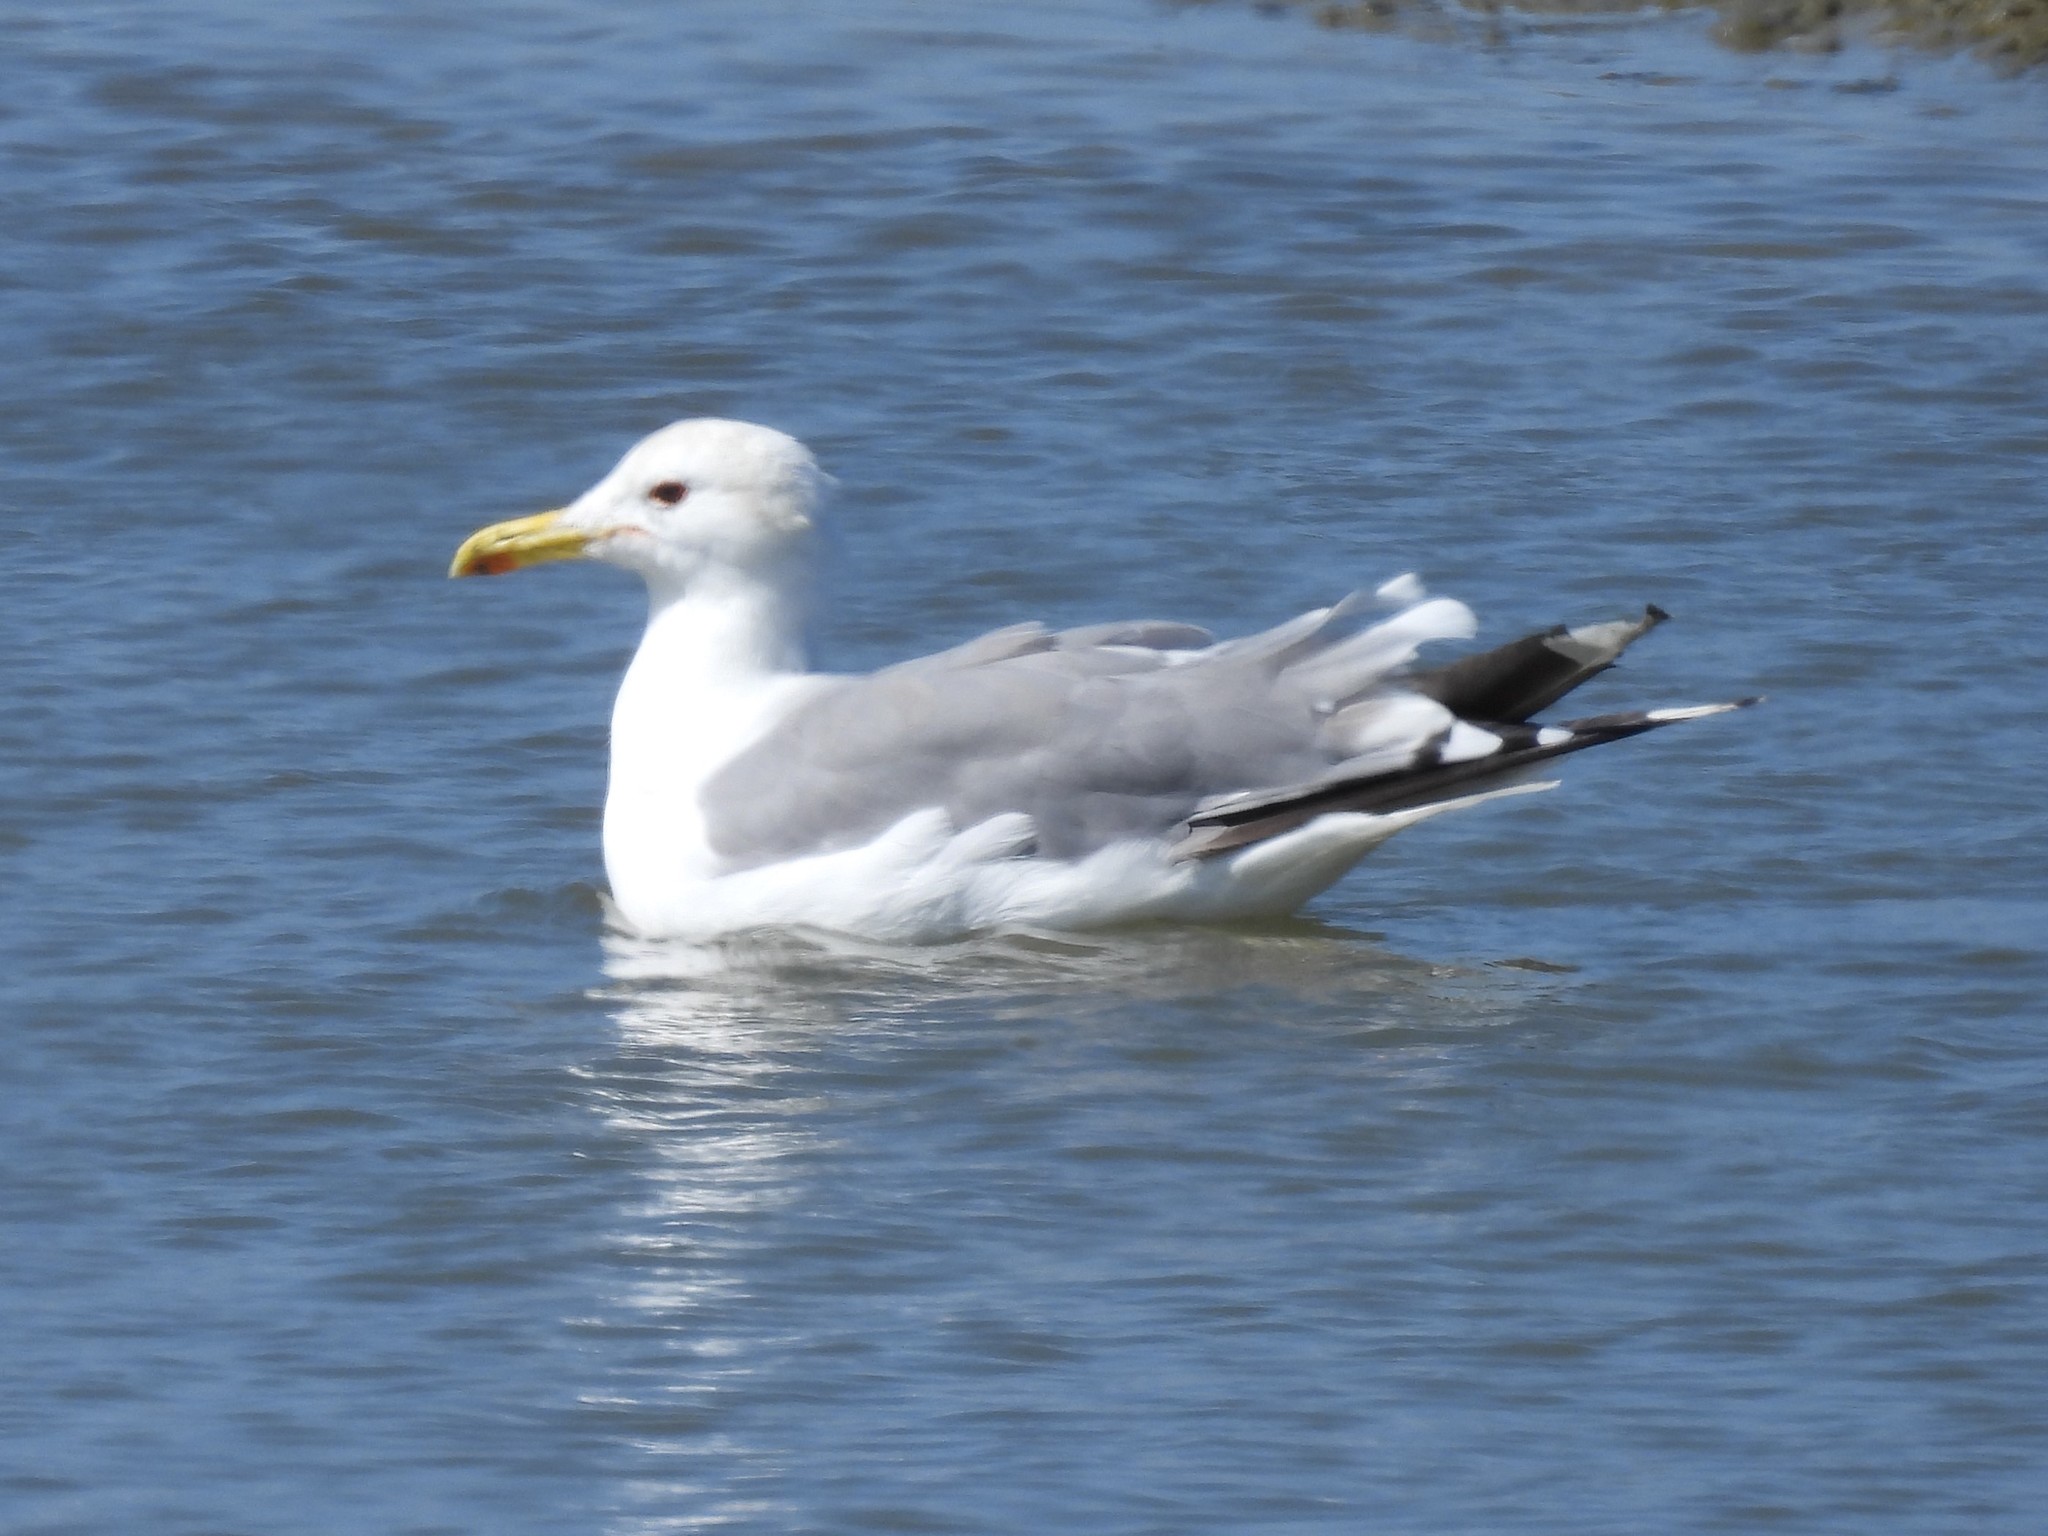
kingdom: Animalia
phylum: Chordata
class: Aves
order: Charadriiformes
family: Laridae
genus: Larus
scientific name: Larus californicus
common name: California gull
